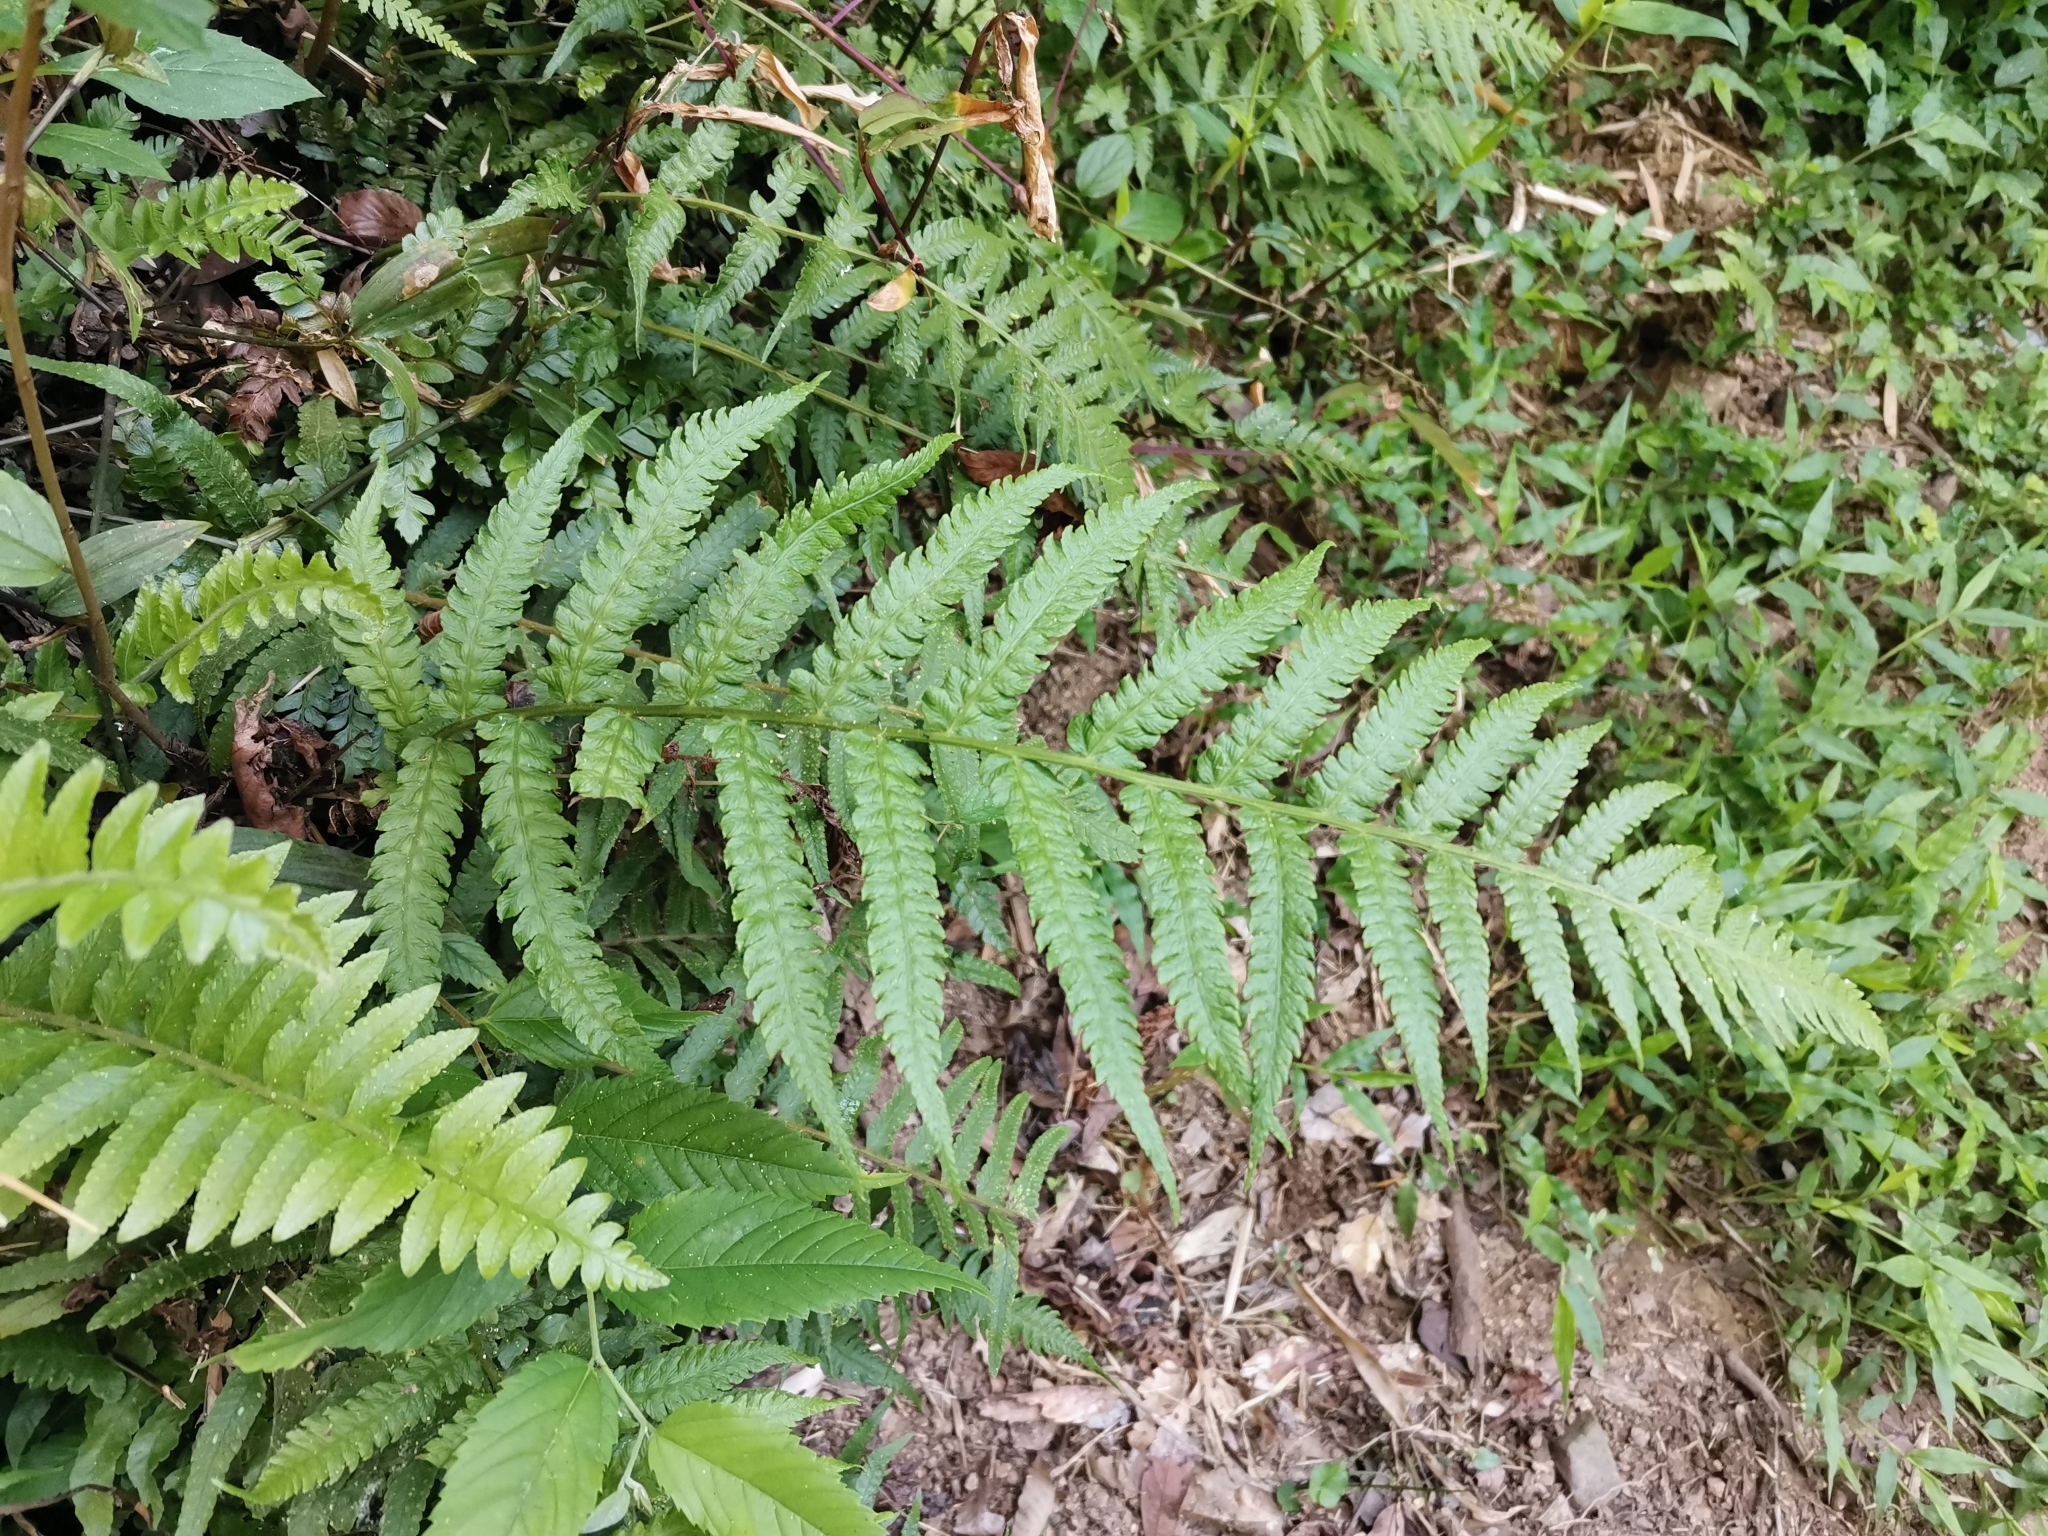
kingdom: Plantae
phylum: Tracheophyta
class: Polypodiopsida
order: Polypodiales
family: Athyriaceae
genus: Deparia
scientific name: Deparia japonica
